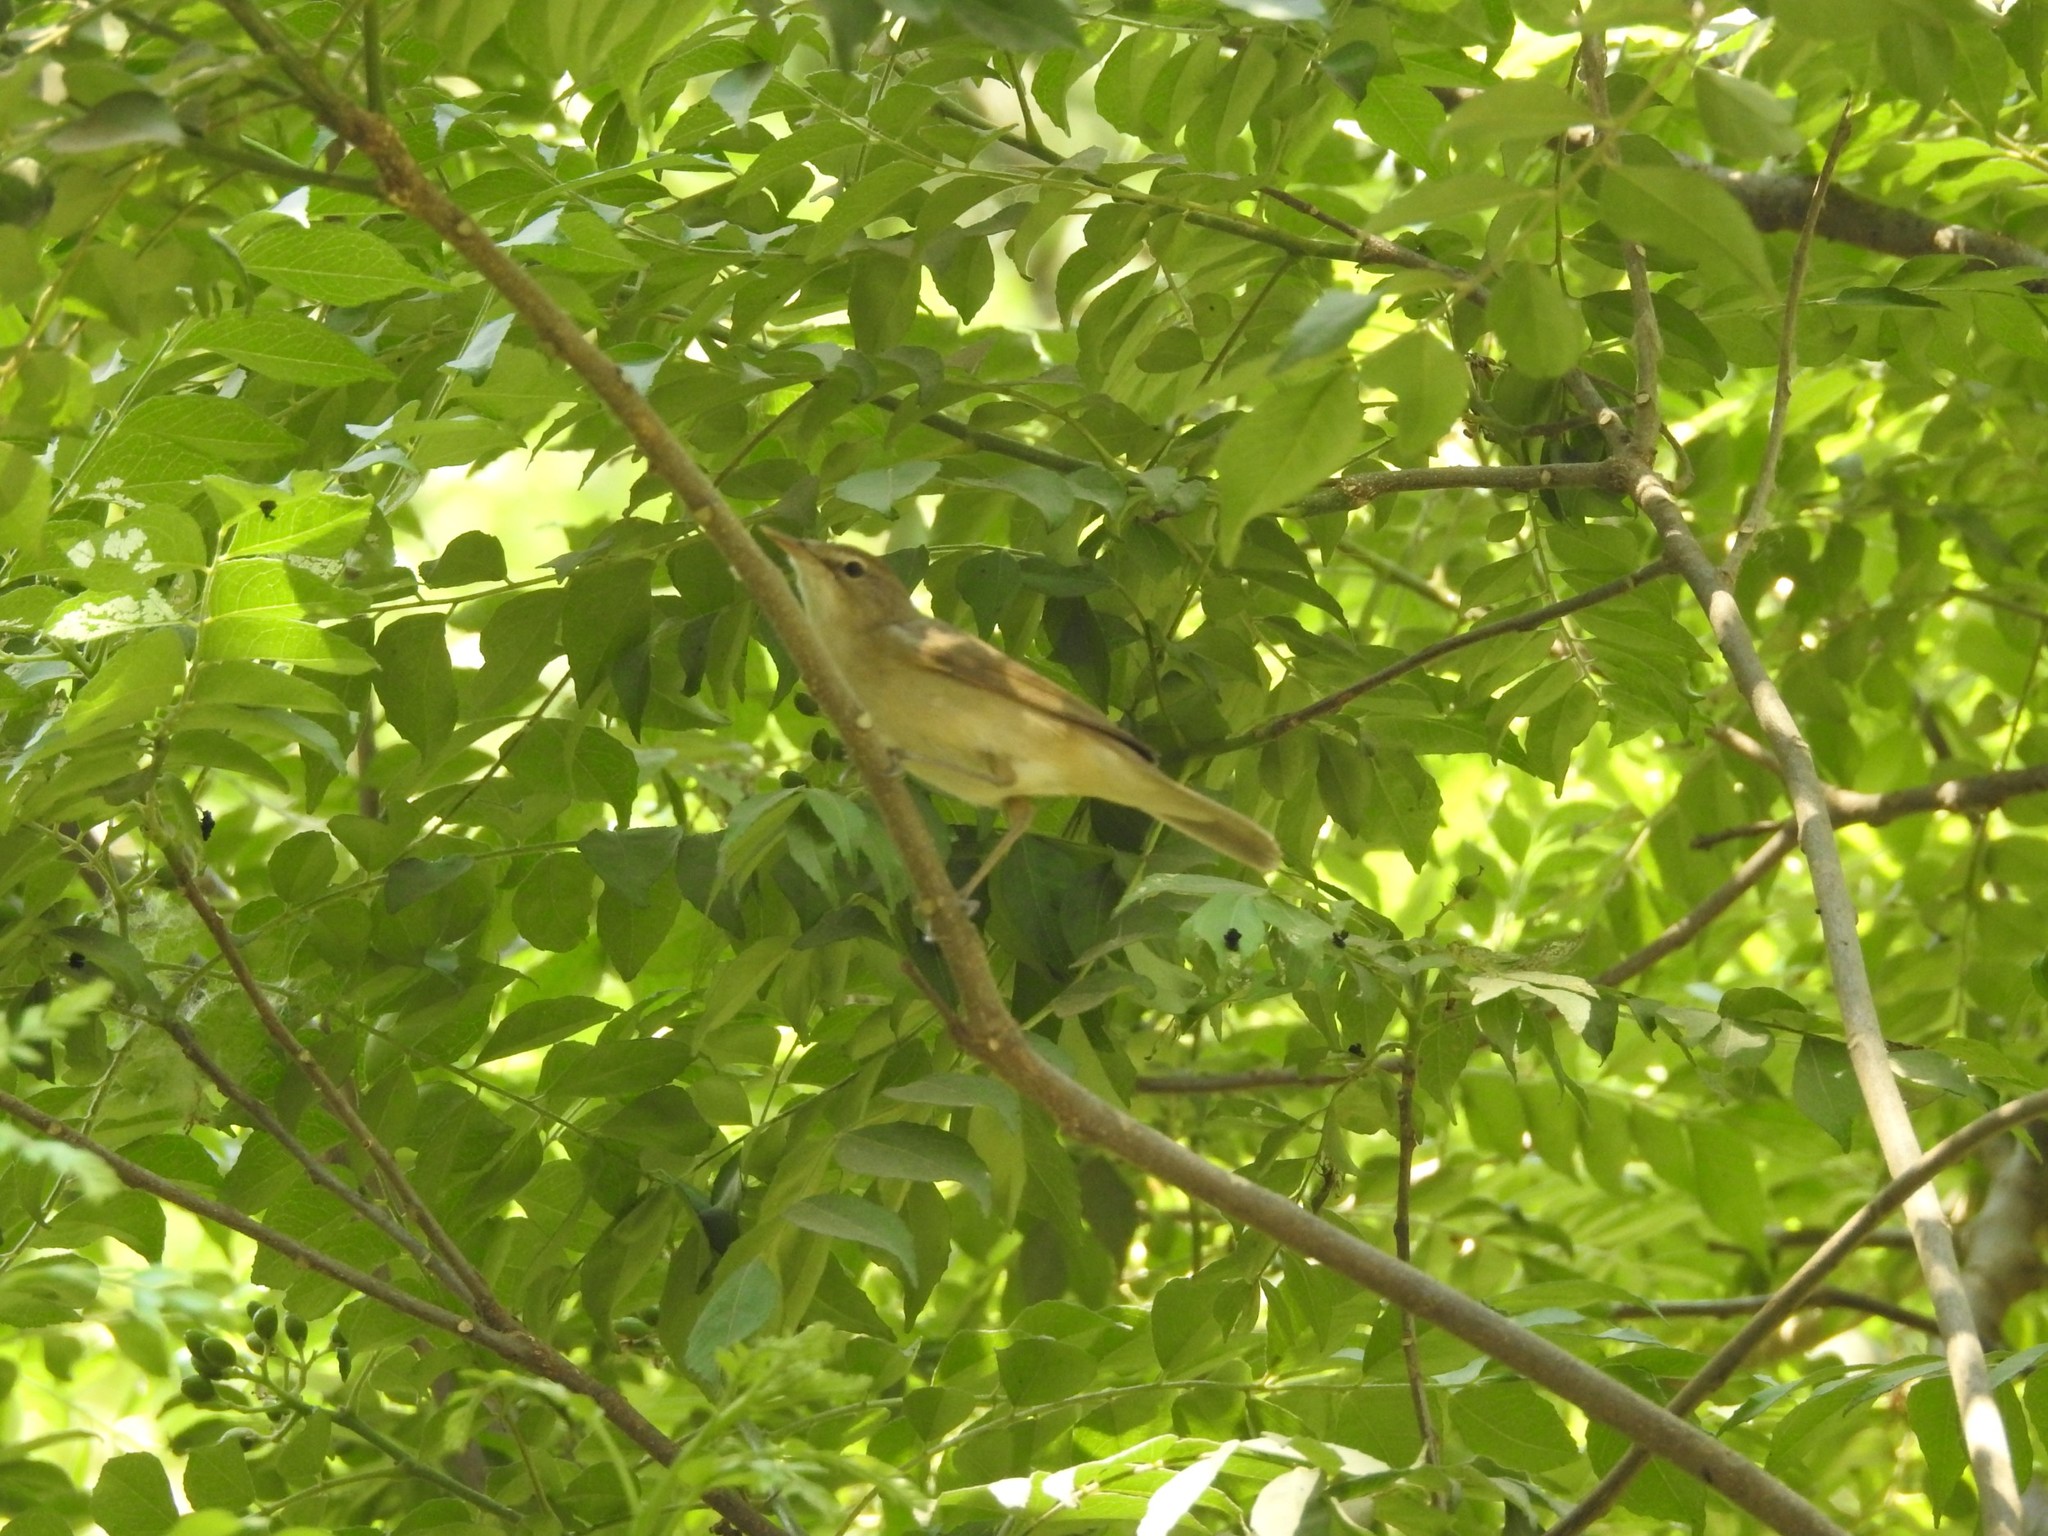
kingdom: Animalia
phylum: Chordata
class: Aves
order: Passeriformes
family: Acrocephalidae
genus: Acrocephalus
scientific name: Acrocephalus dumetorum
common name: Blyth's reed warbler
